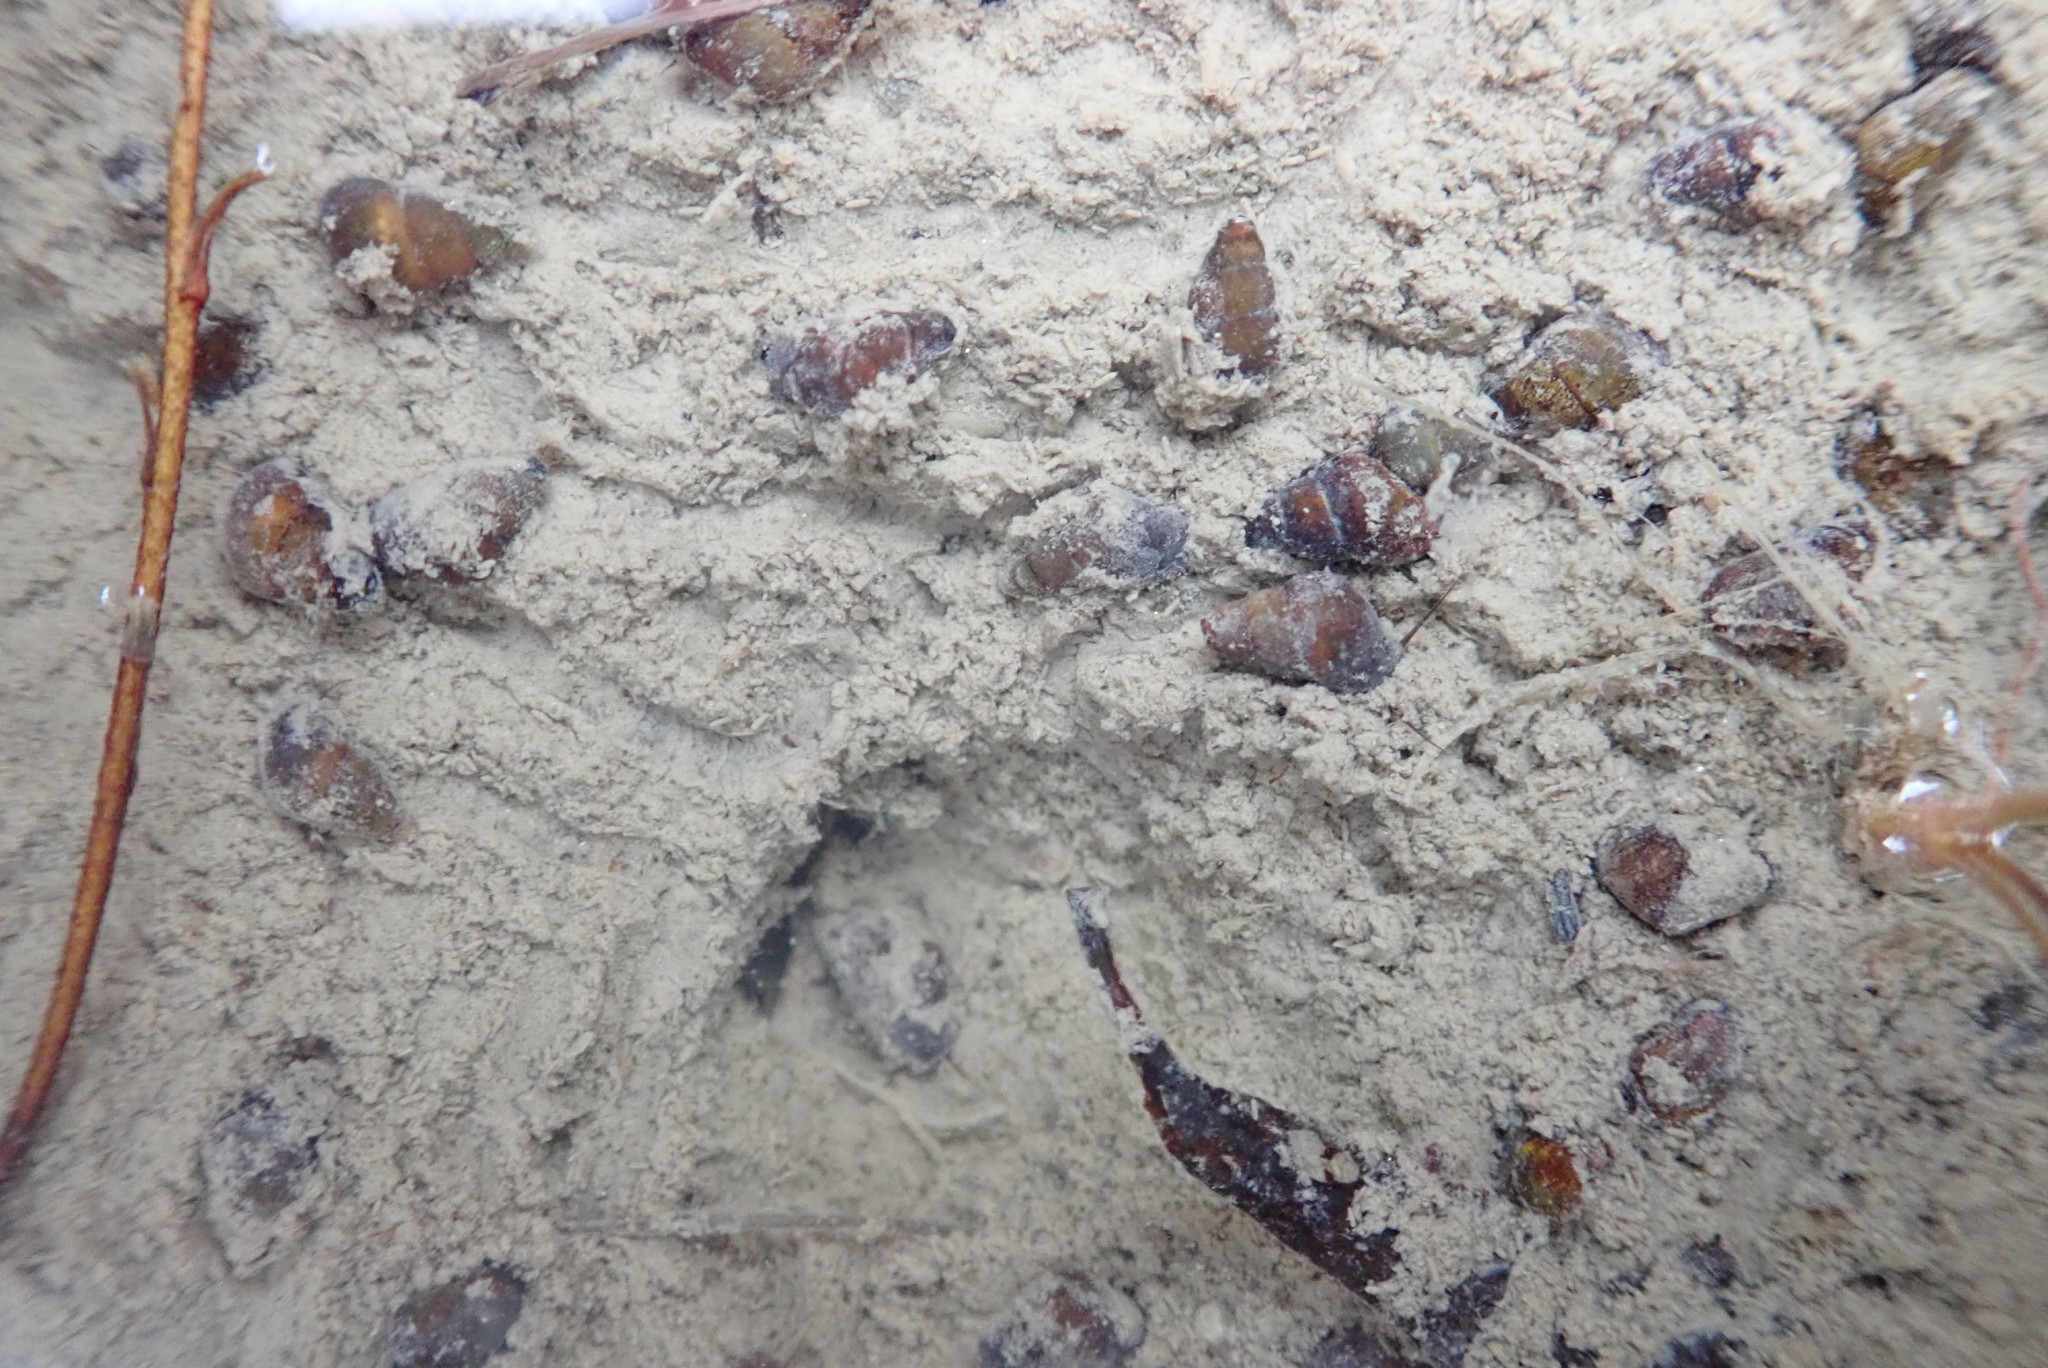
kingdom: Animalia
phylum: Mollusca
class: Gastropoda
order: Littorinimorpha
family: Tateidae
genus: Potamopyrgus
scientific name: Potamopyrgus estuarinus
